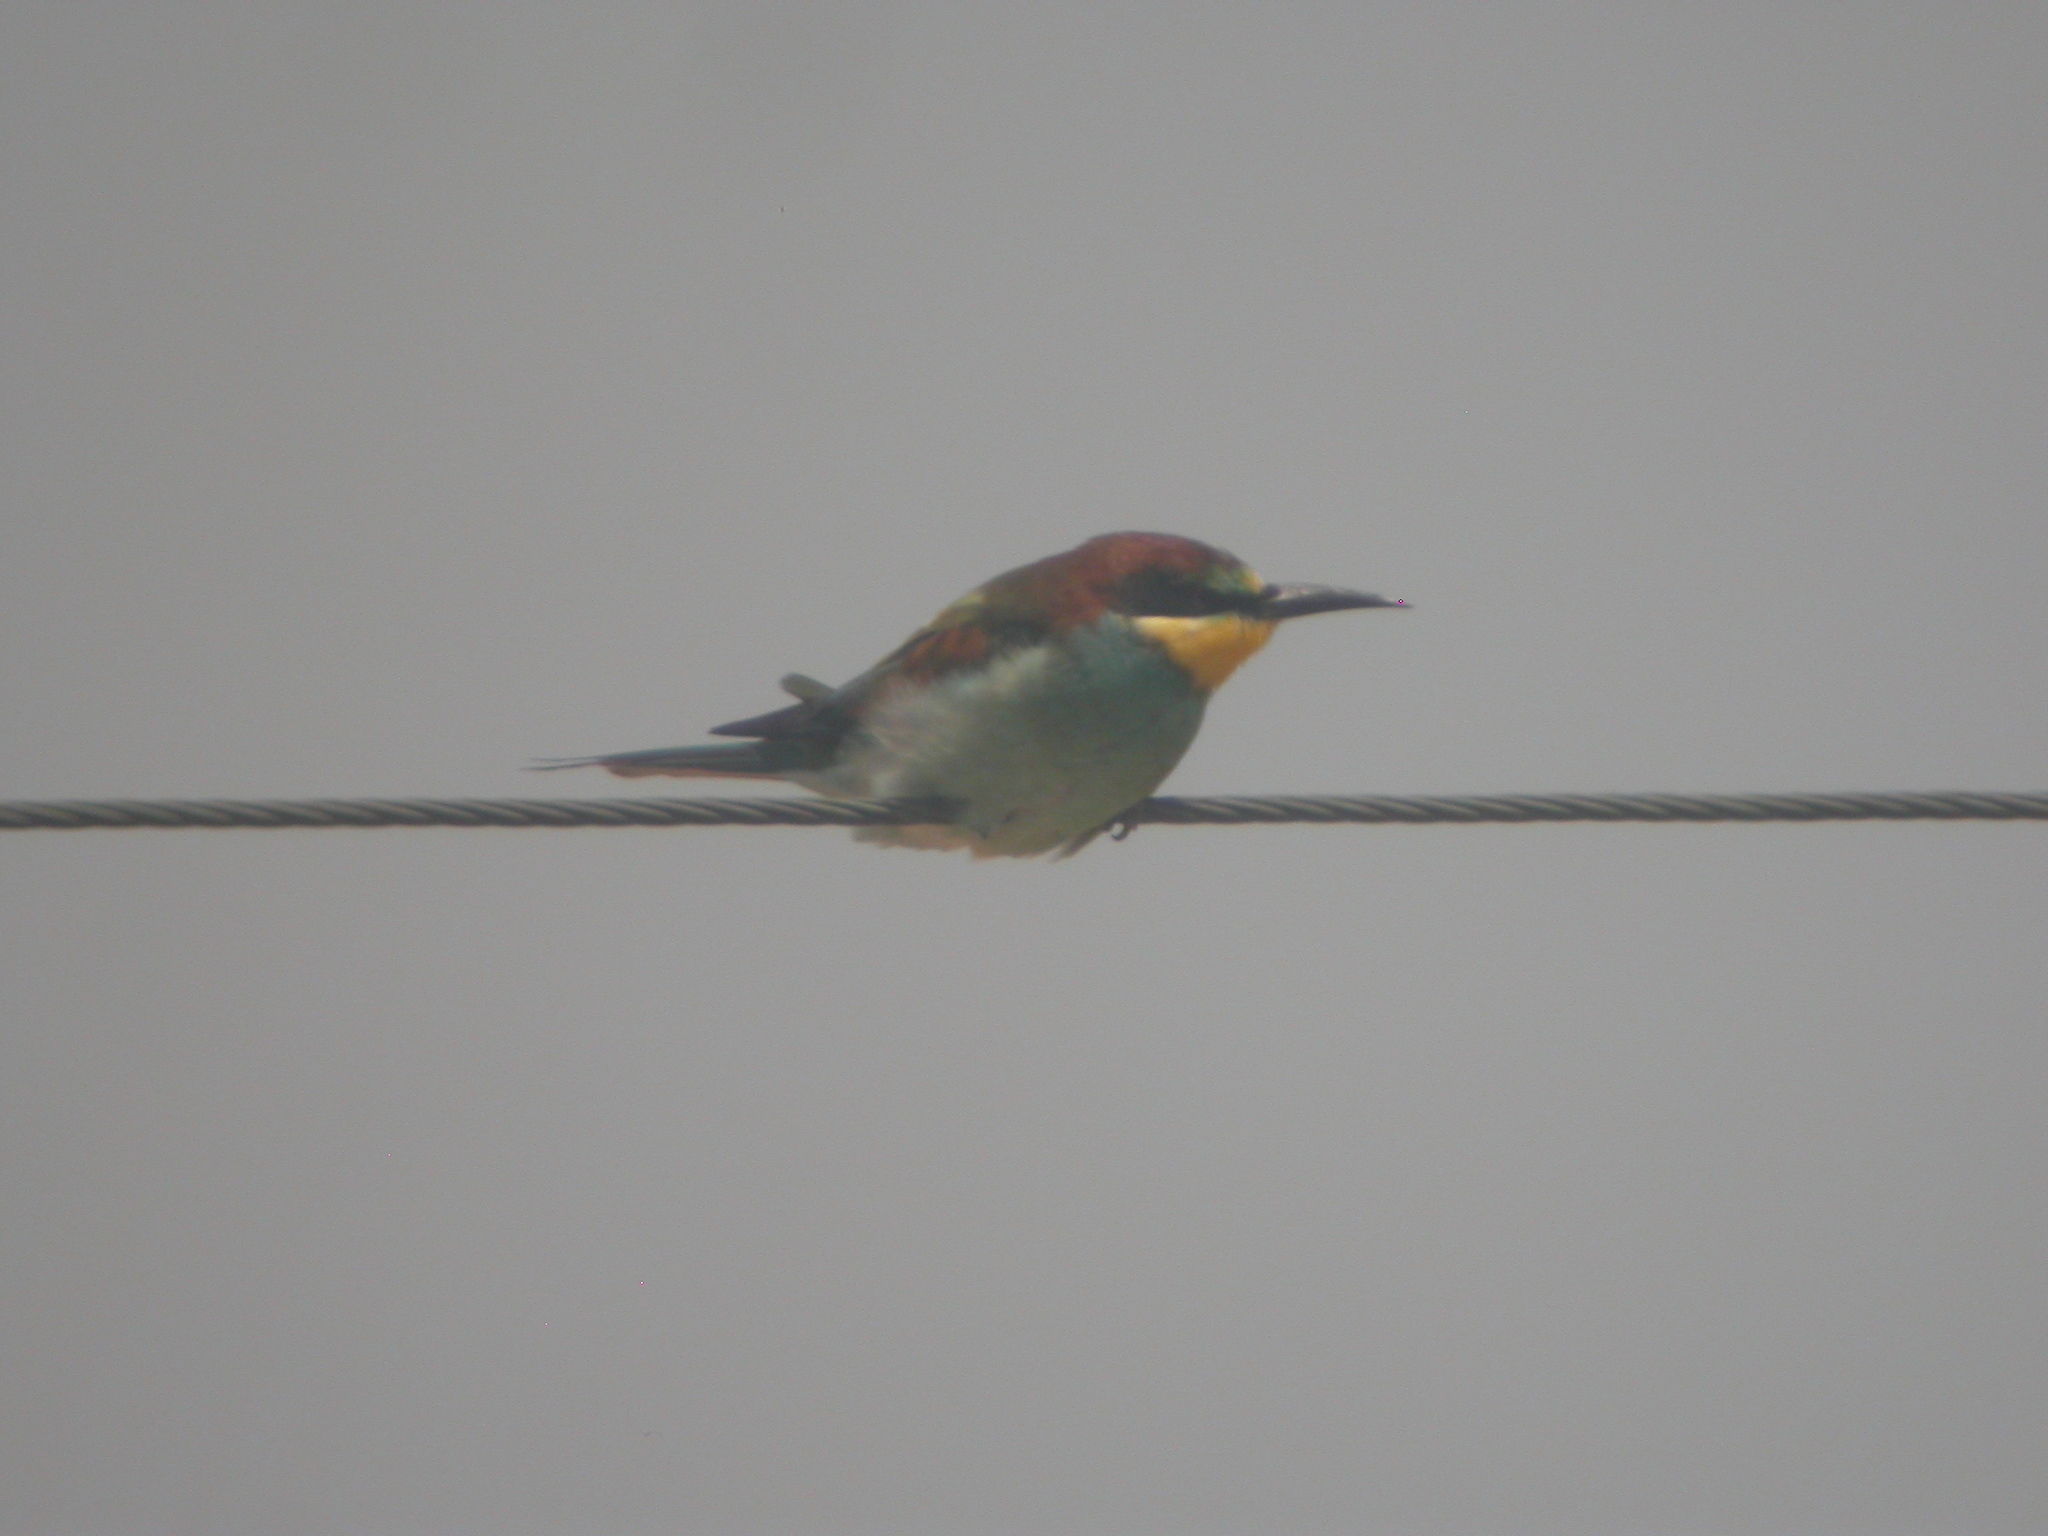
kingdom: Animalia
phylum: Chordata
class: Aves
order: Coraciiformes
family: Meropidae
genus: Merops
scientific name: Merops apiaster
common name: European bee-eater
